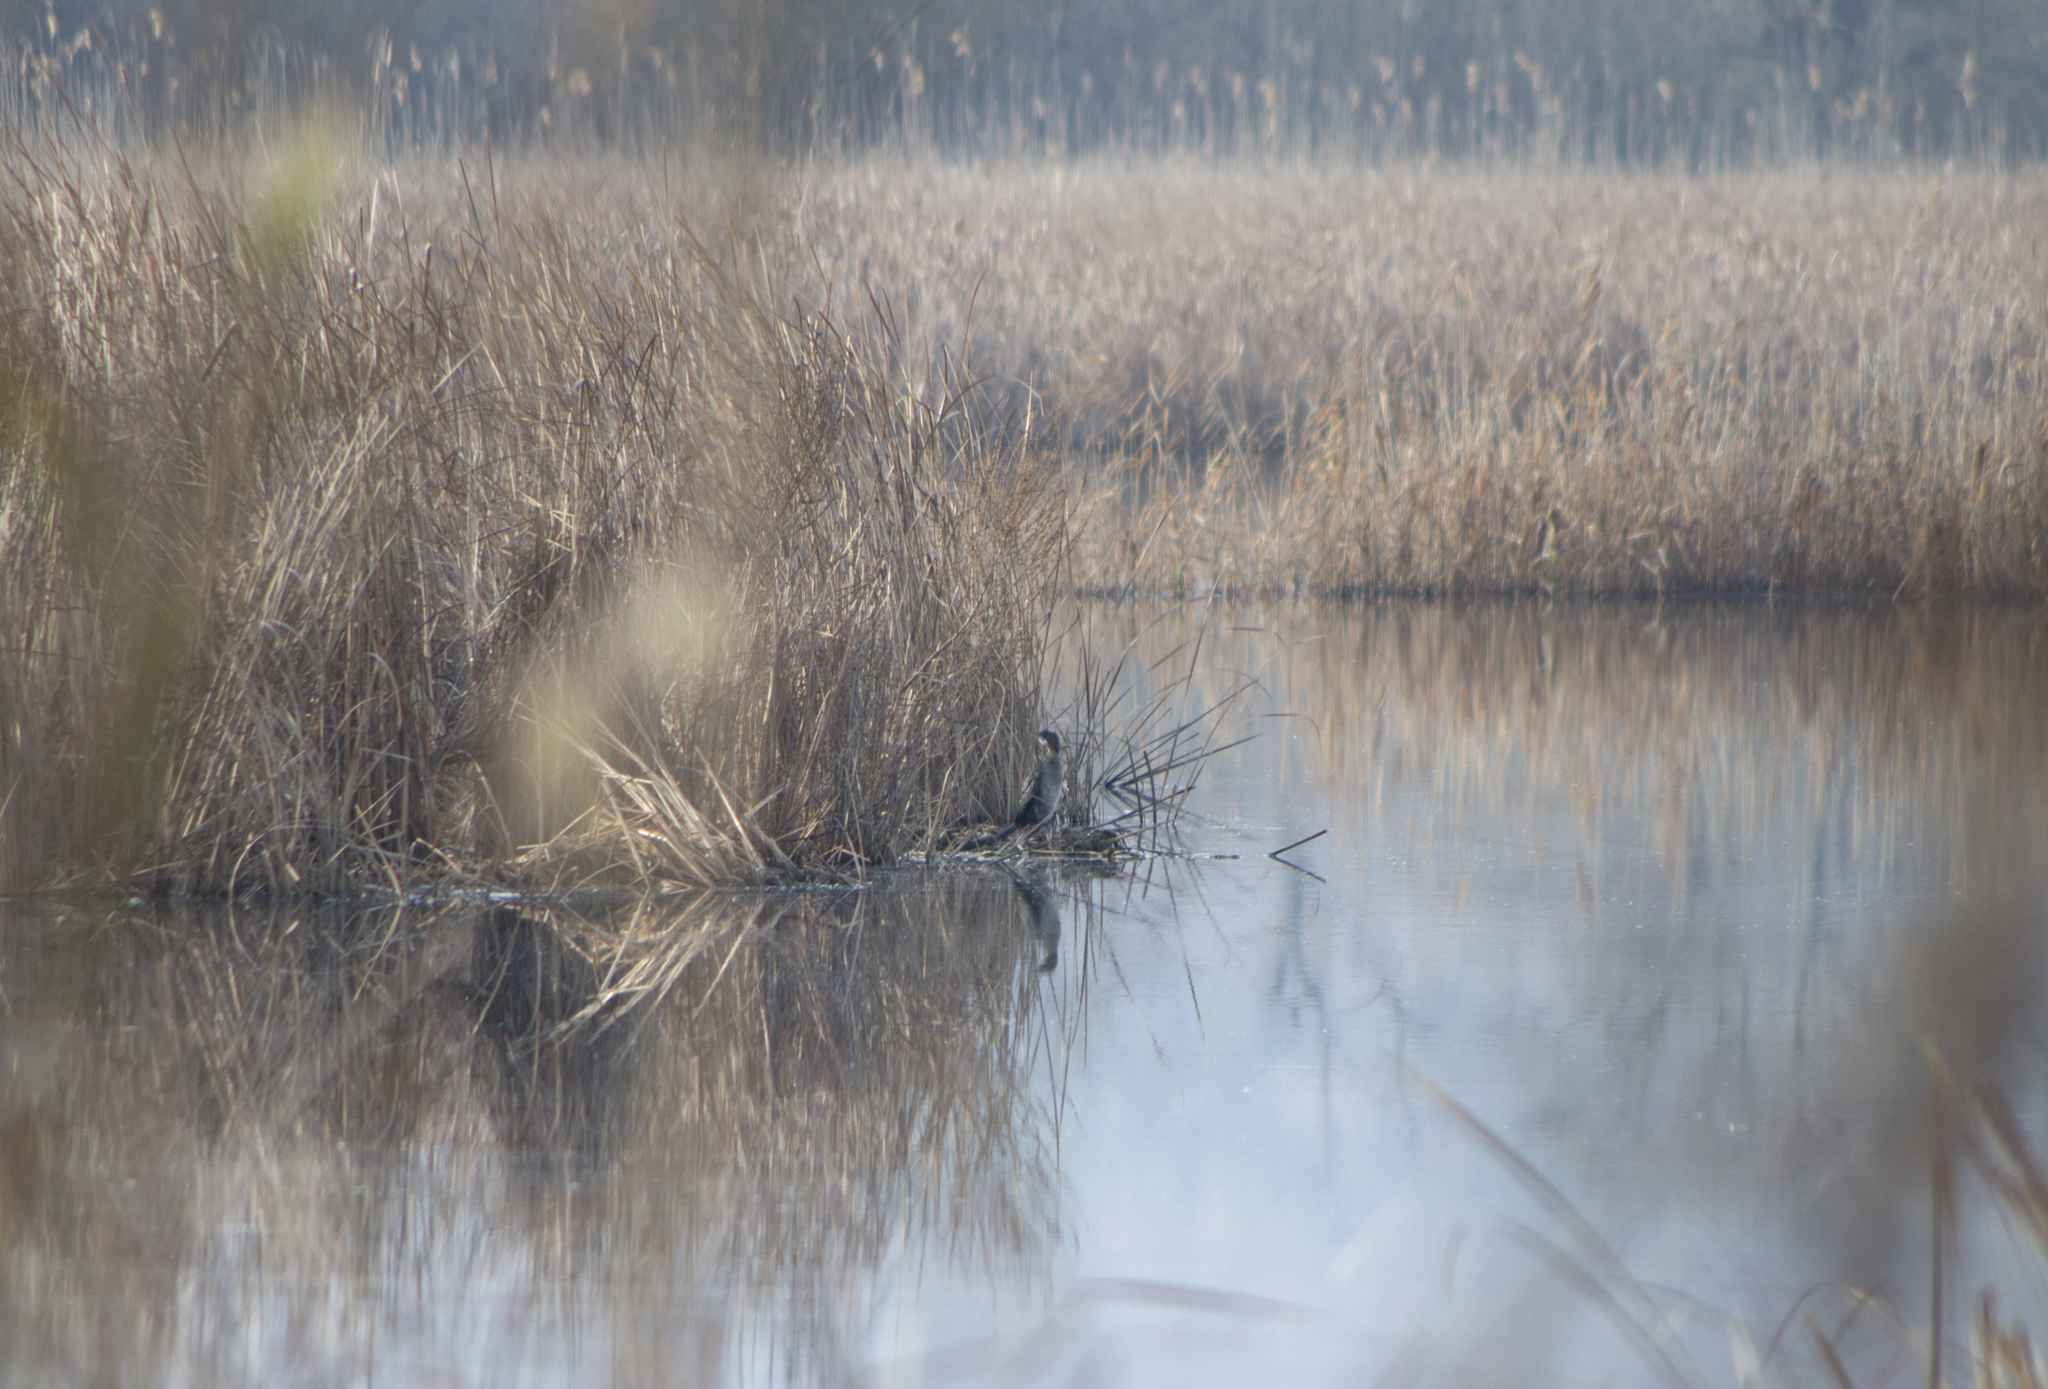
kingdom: Animalia
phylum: Chordata
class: Aves
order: Suliformes
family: Phalacrocoracidae
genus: Microcarbo
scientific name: Microcarbo pygmaeus
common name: Pygmy cormorant
